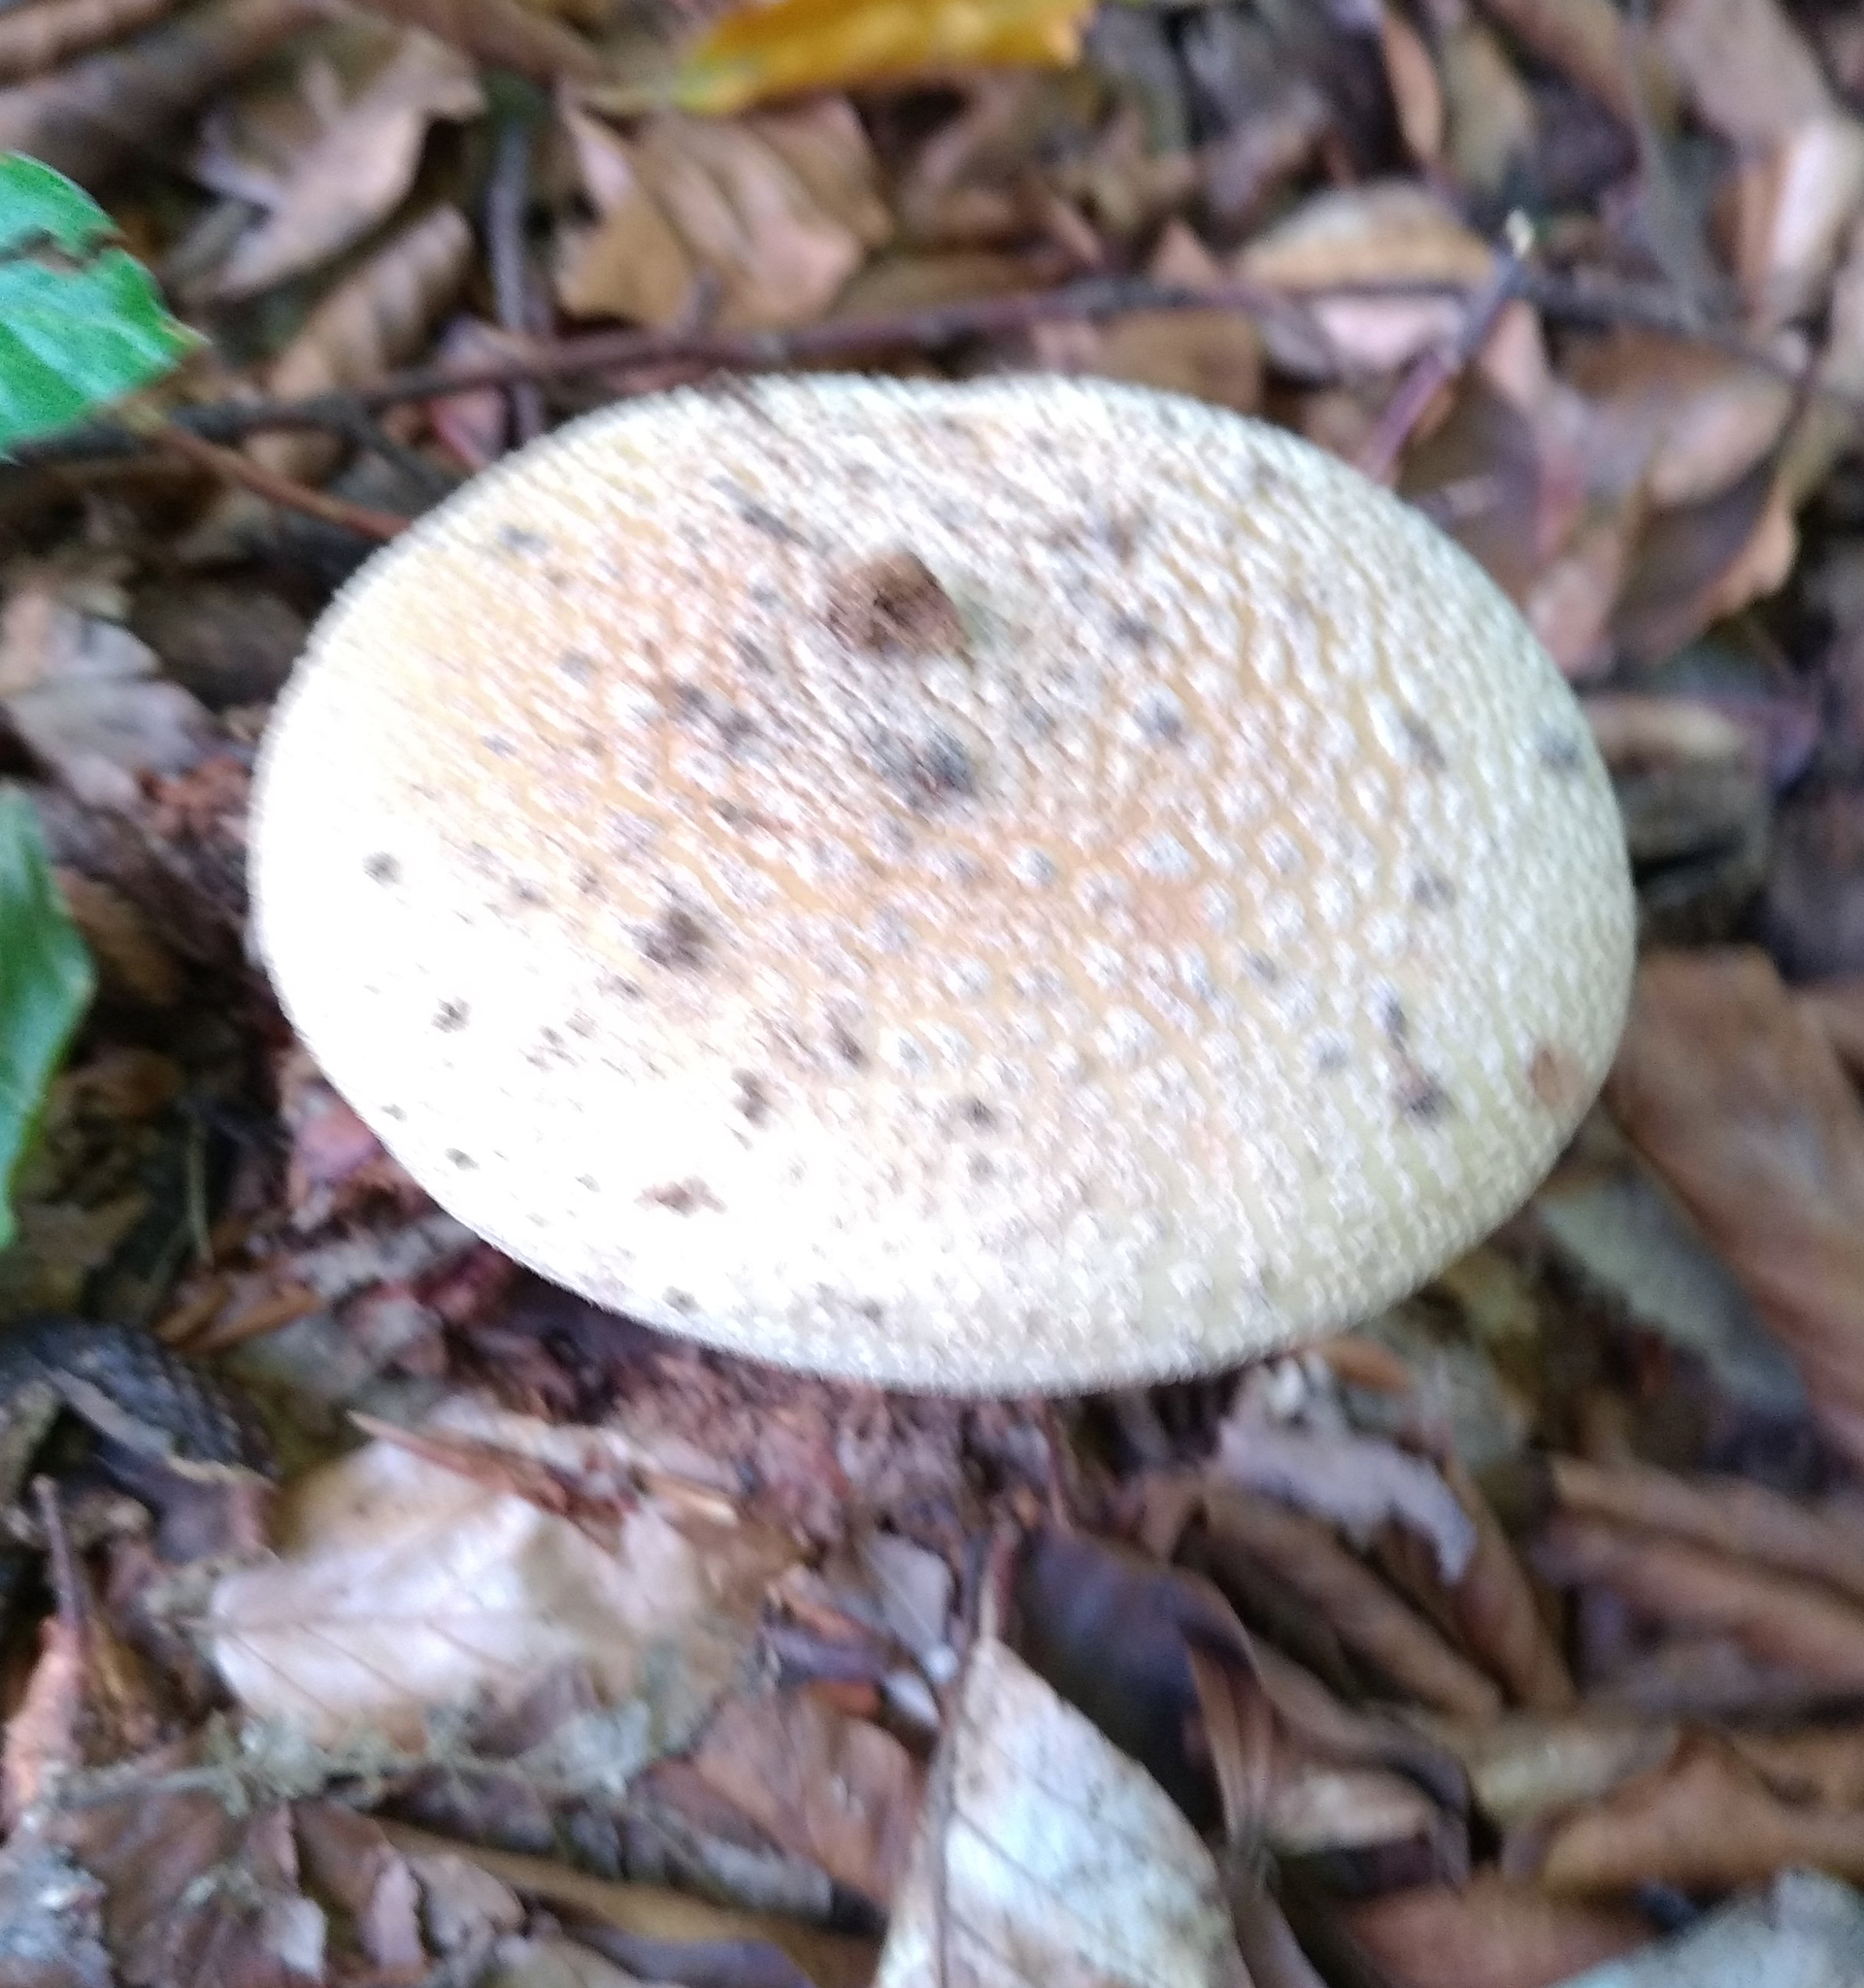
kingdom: Fungi
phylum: Basidiomycota
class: Agaricomycetes
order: Agaricales
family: Amanitaceae
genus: Amanita
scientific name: Amanita rubescens
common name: Blusher
